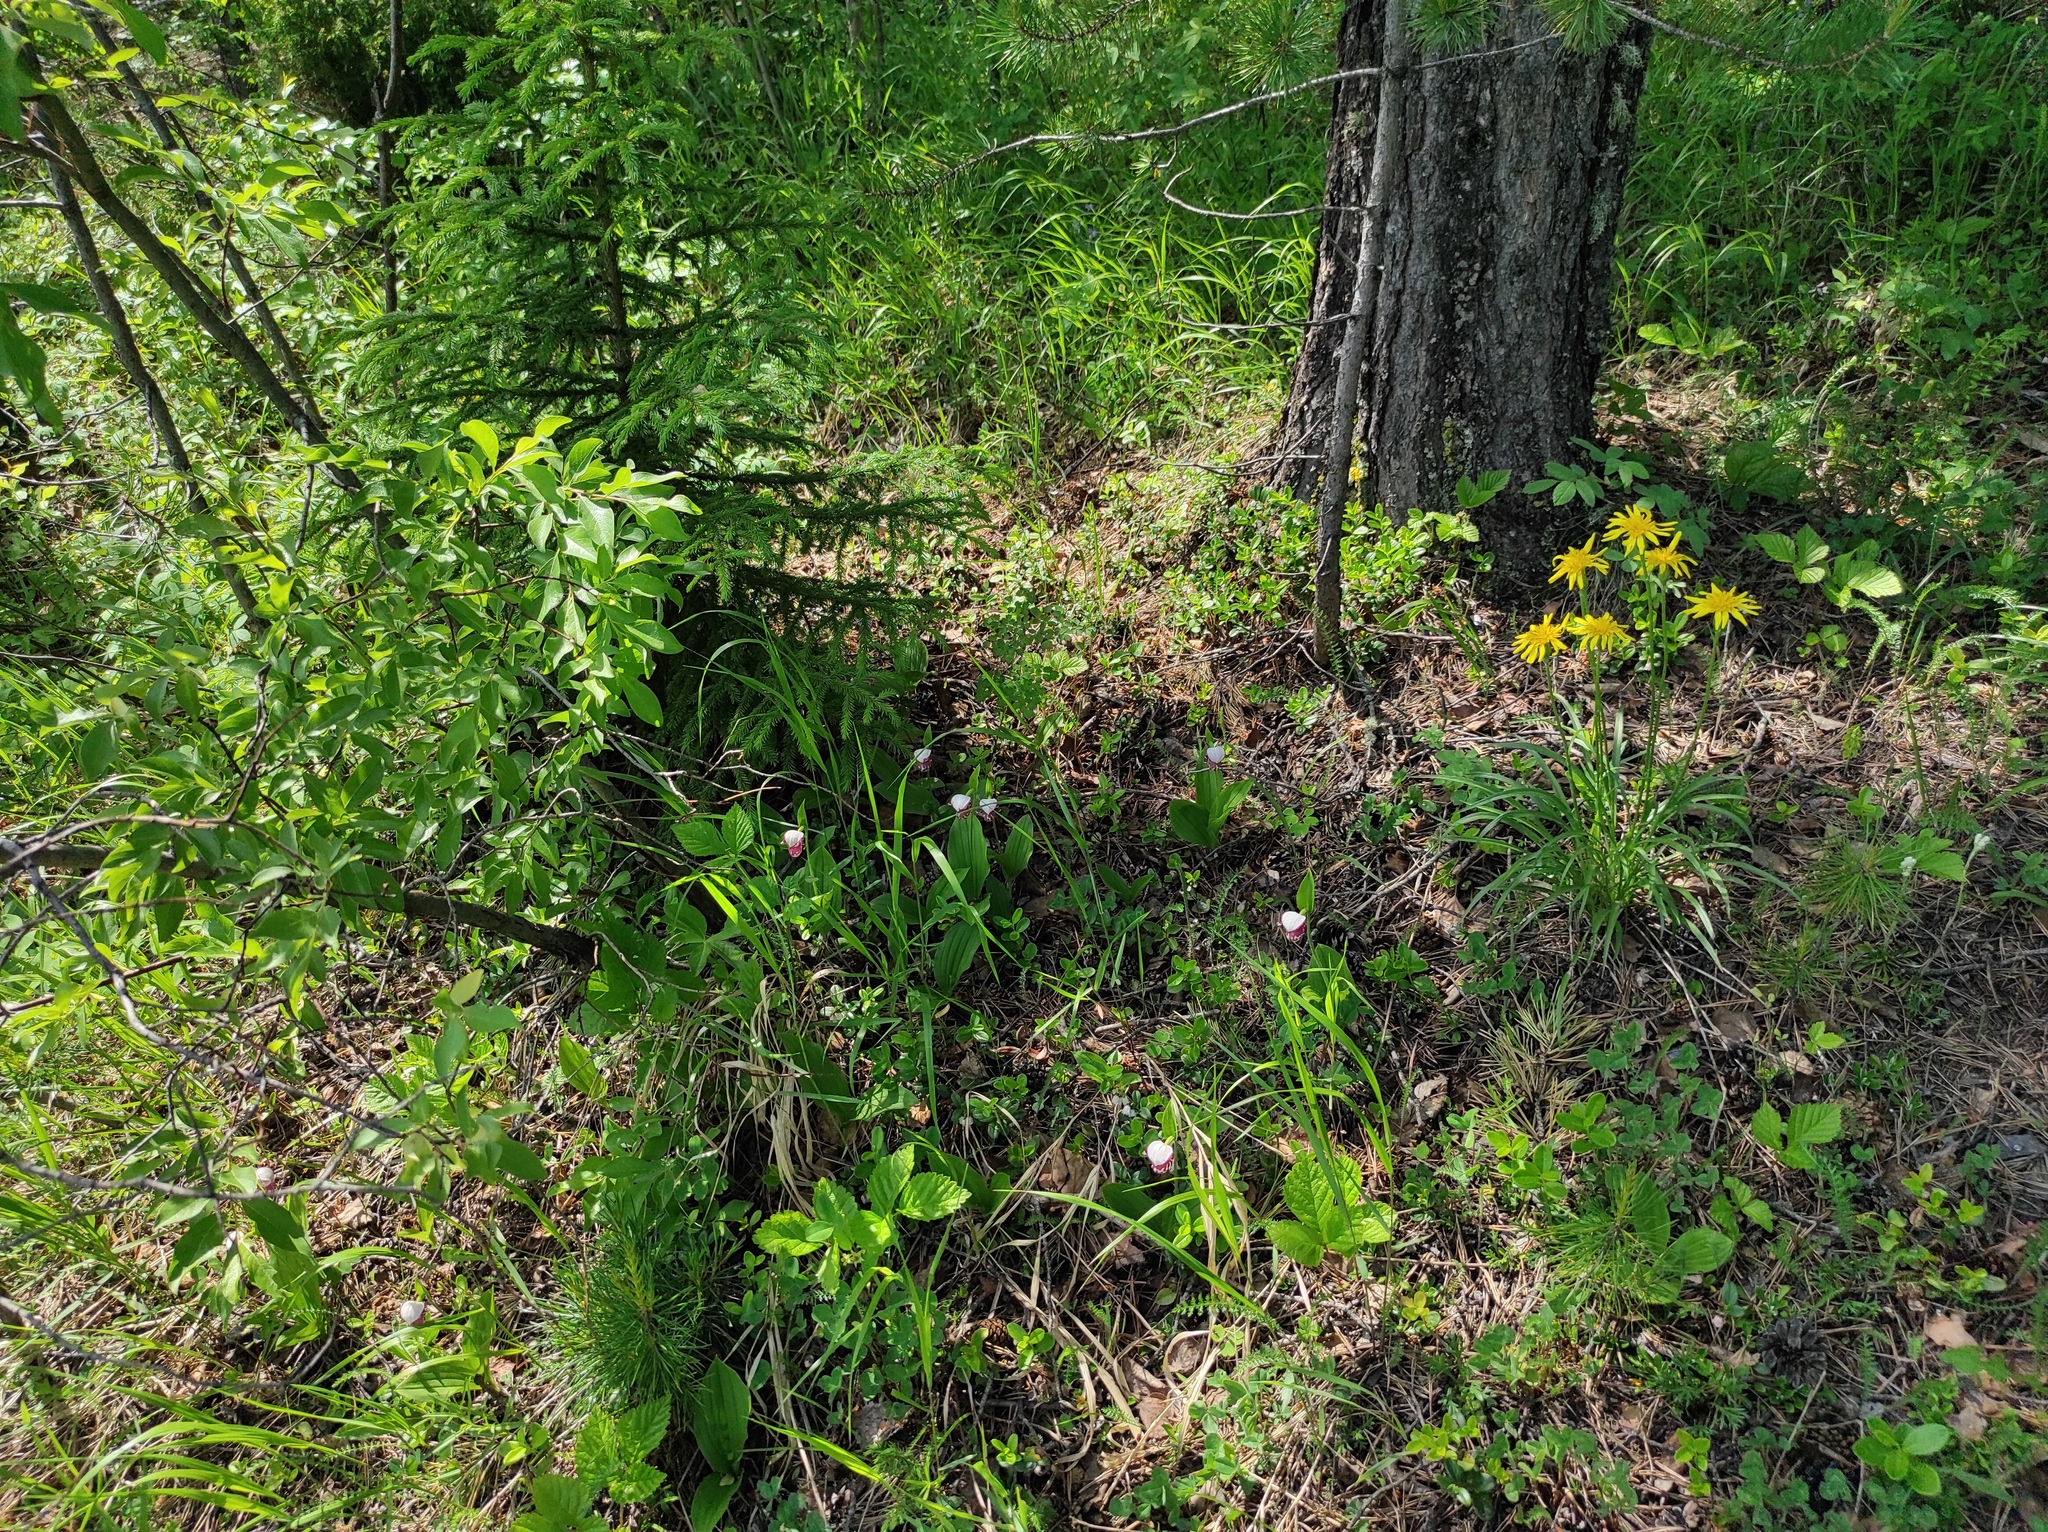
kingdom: Plantae
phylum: Tracheophyta
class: Pinopsida
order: Pinales
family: Pinaceae
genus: Picea
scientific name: Picea obovata
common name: Siberian spruce
